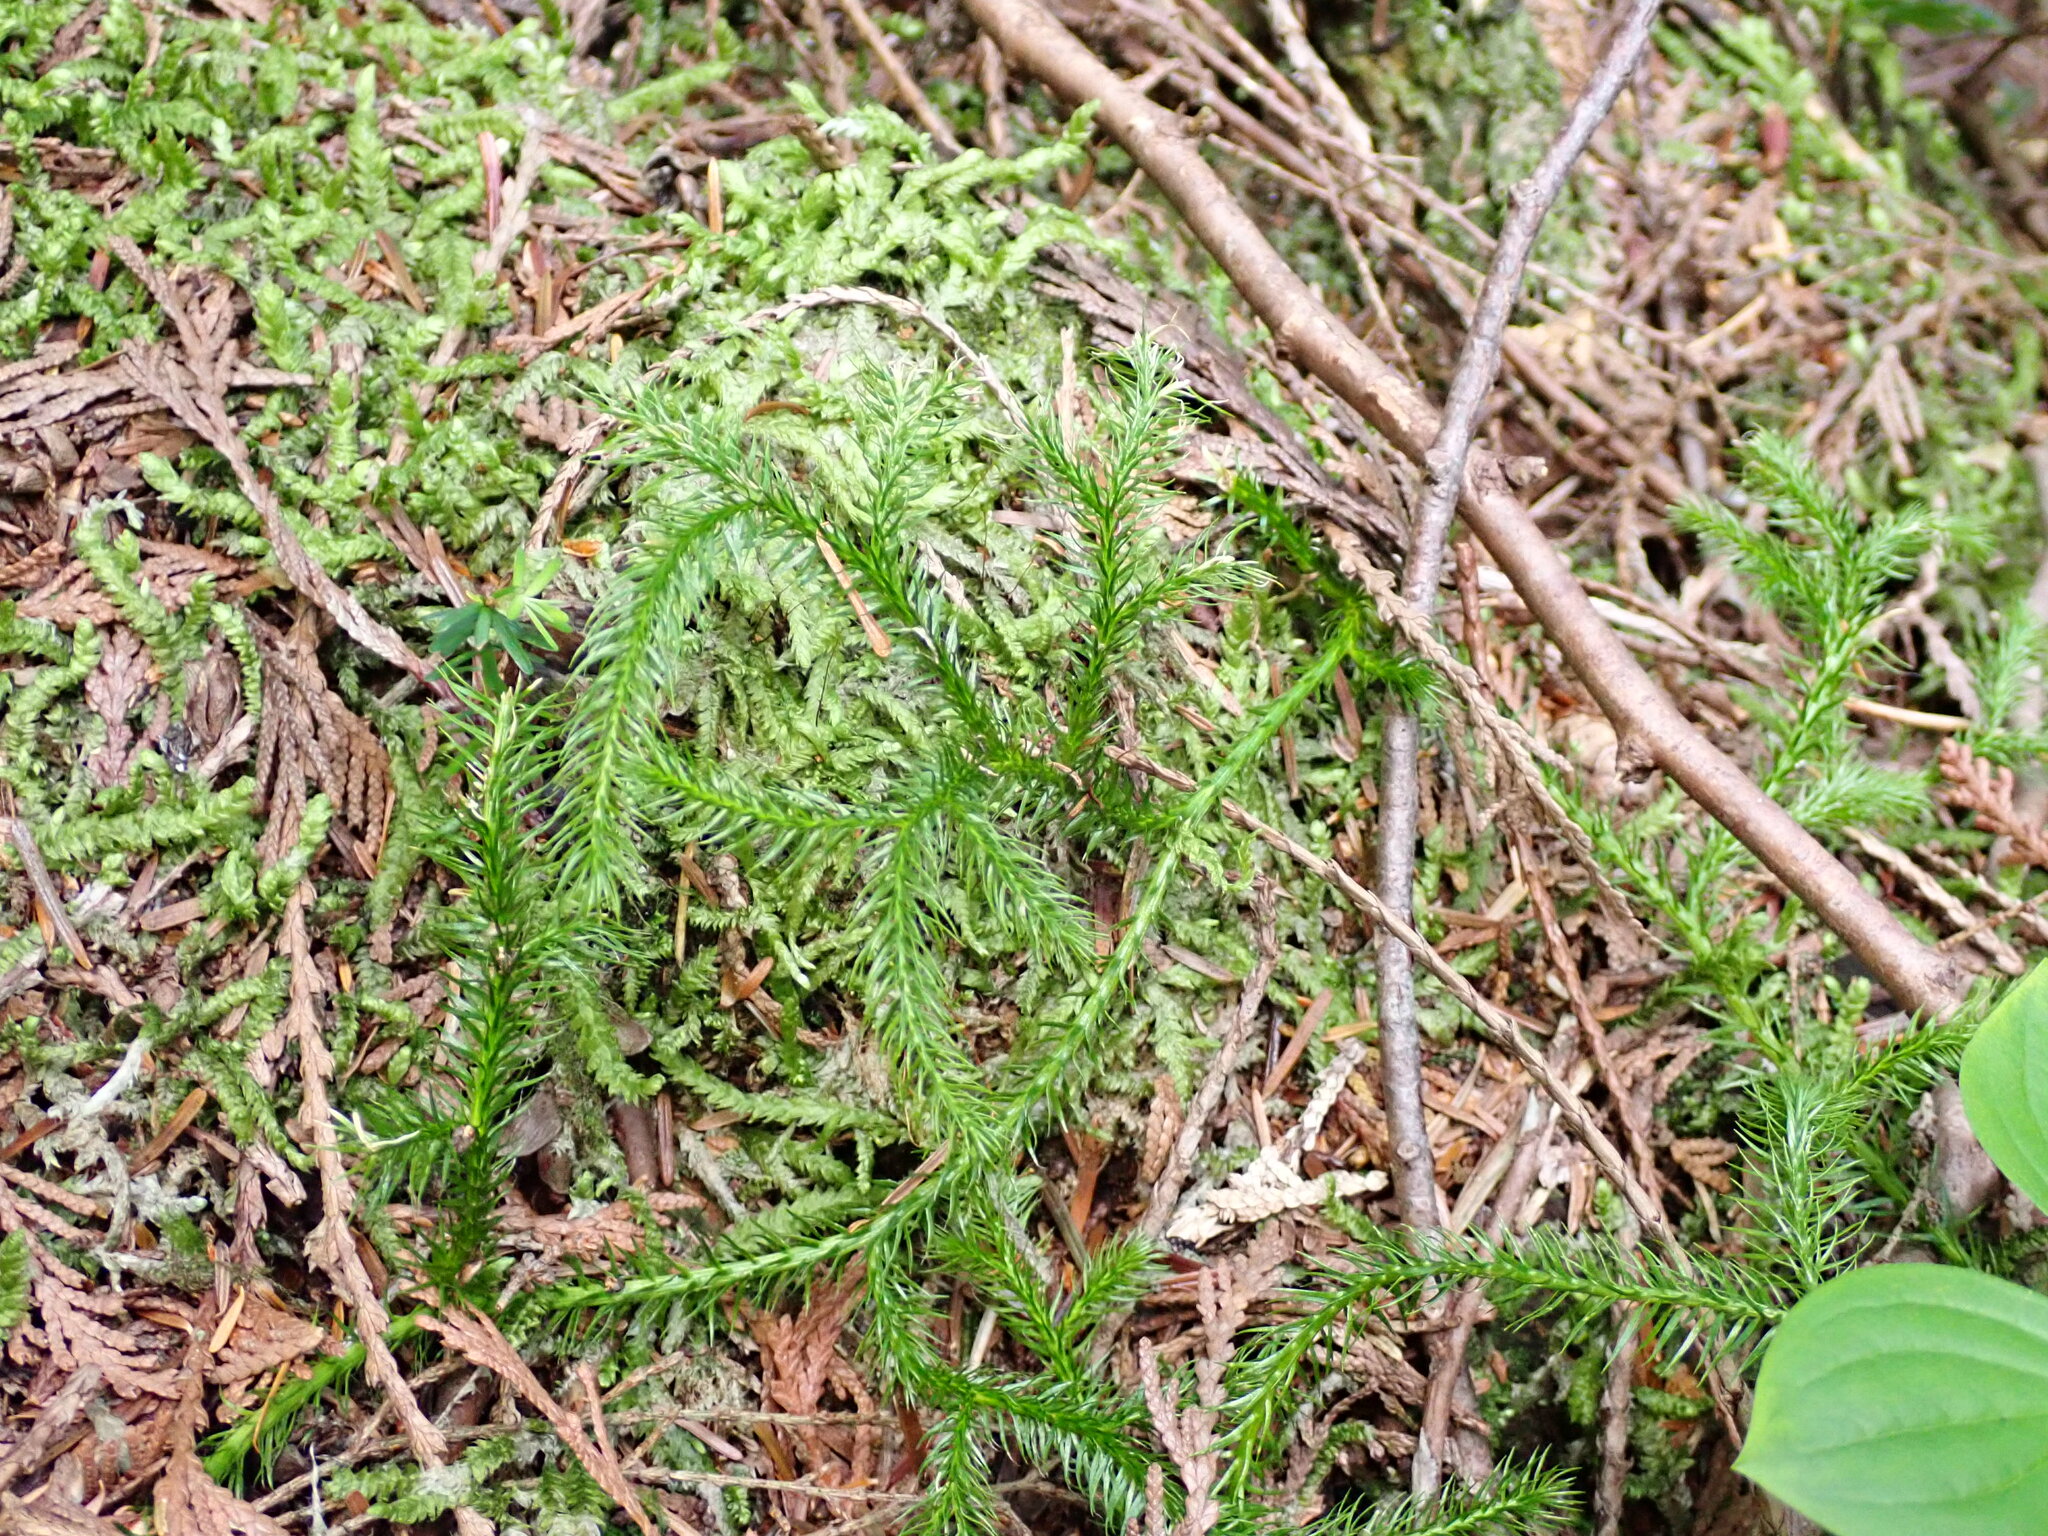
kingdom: Plantae
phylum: Tracheophyta
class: Lycopodiopsida
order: Lycopodiales
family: Lycopodiaceae
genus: Lycopodium
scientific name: Lycopodium clavatum
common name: Stag's-horn clubmoss
